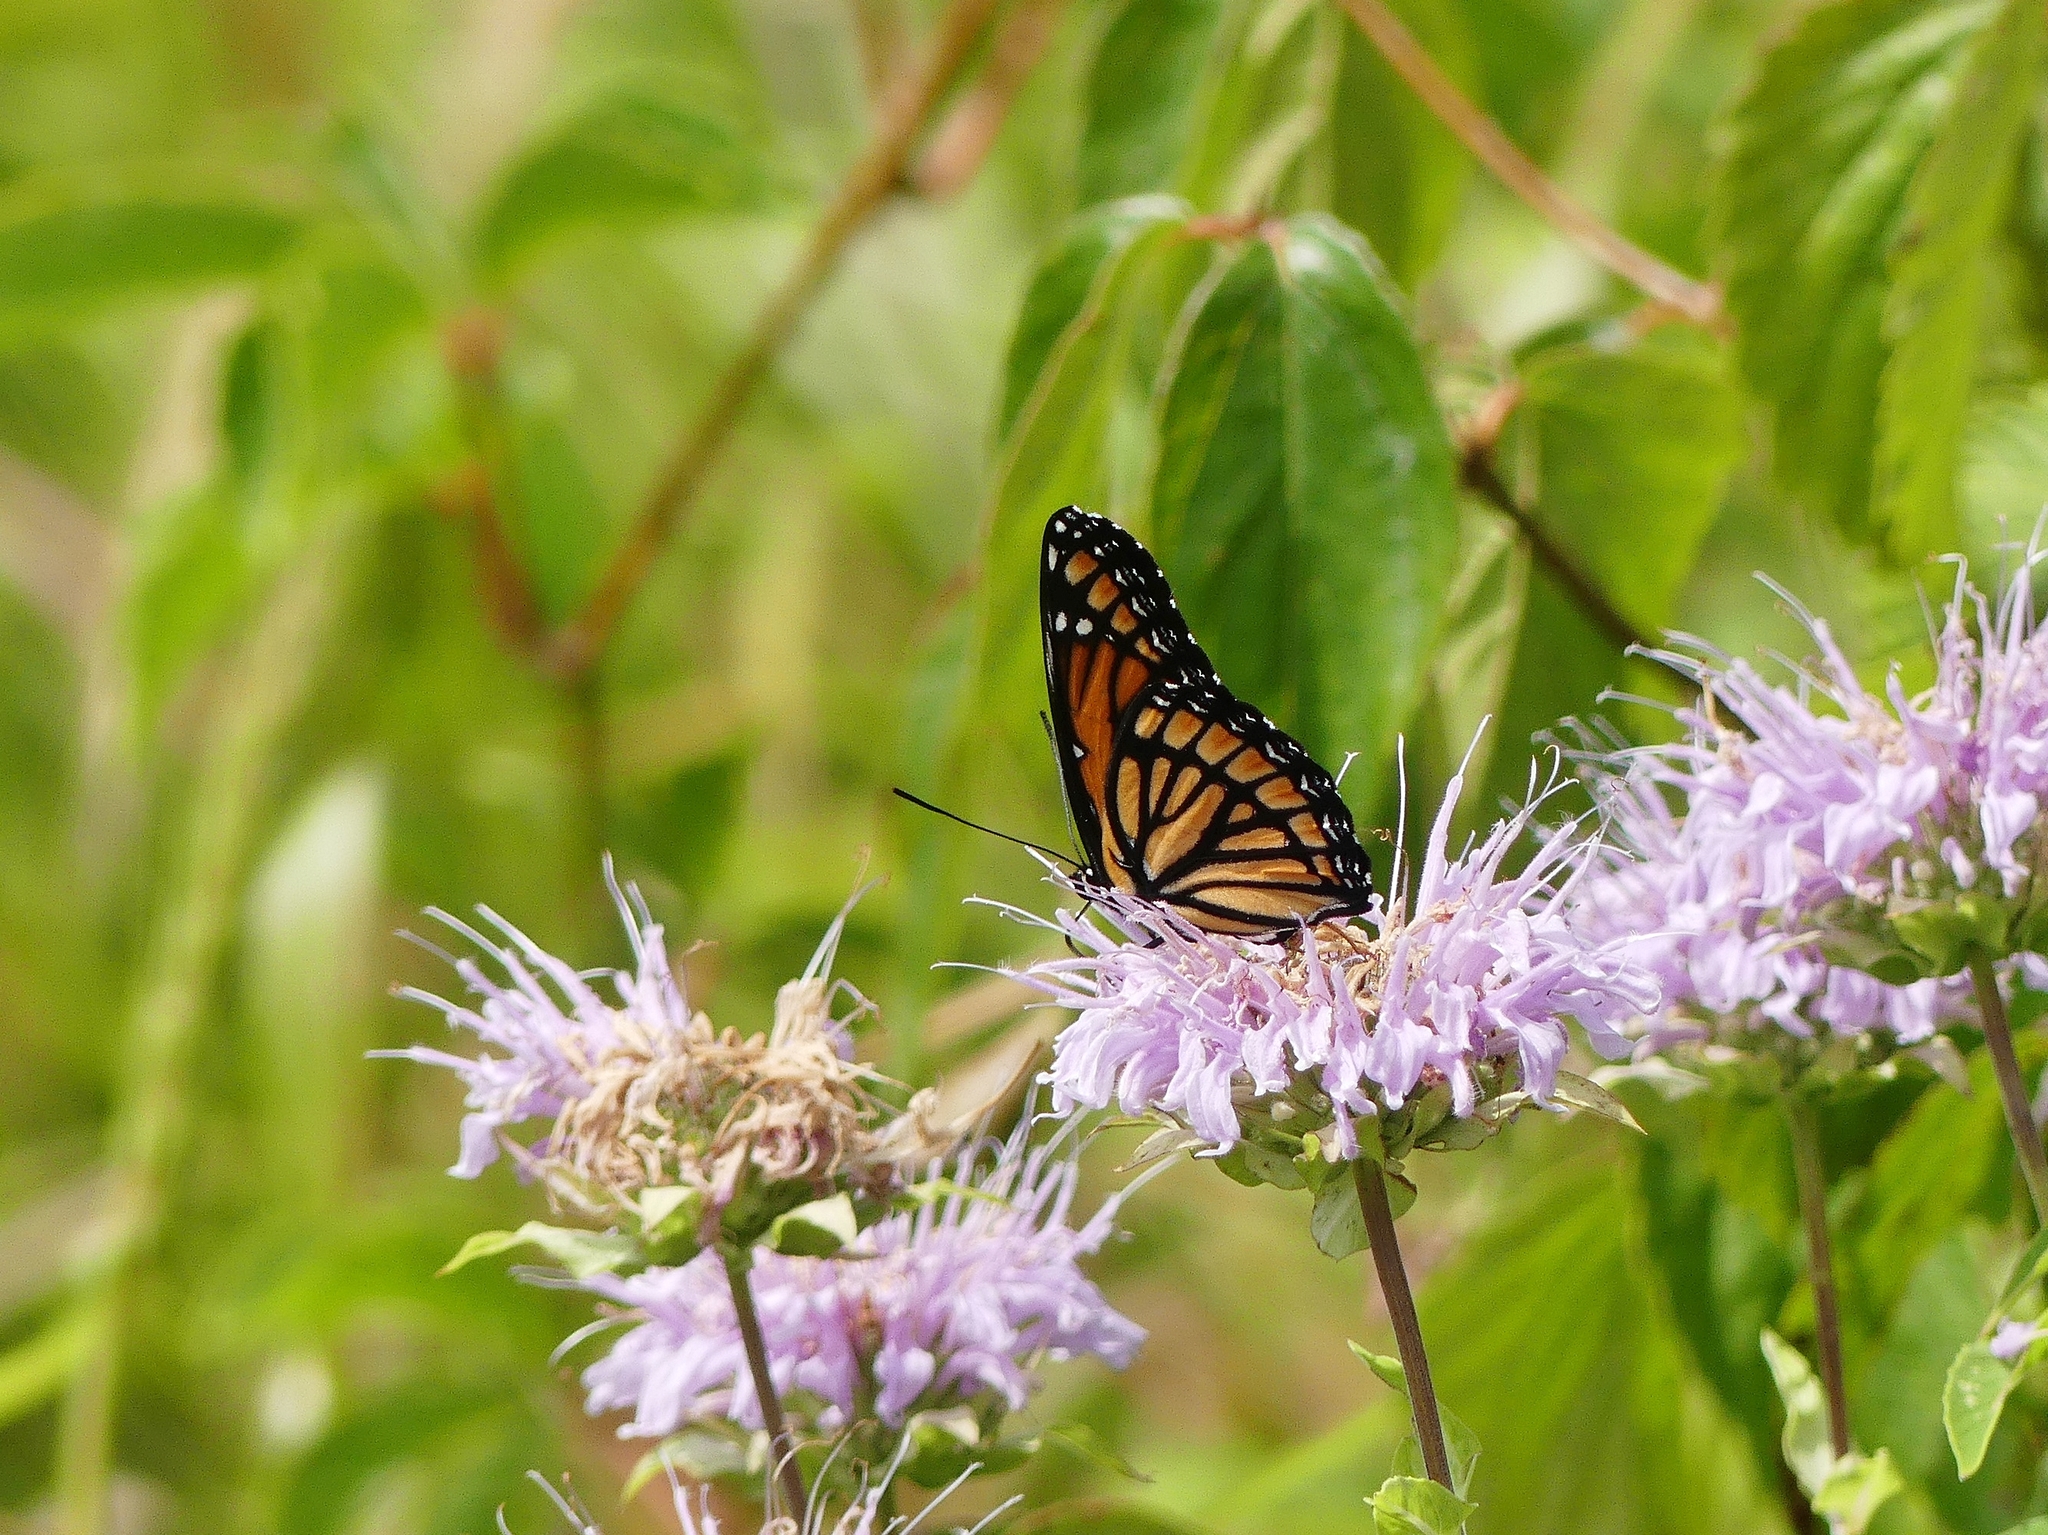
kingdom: Animalia
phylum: Arthropoda
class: Insecta
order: Lepidoptera
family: Nymphalidae
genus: Limenitis
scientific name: Limenitis archippus
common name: Viceroy
